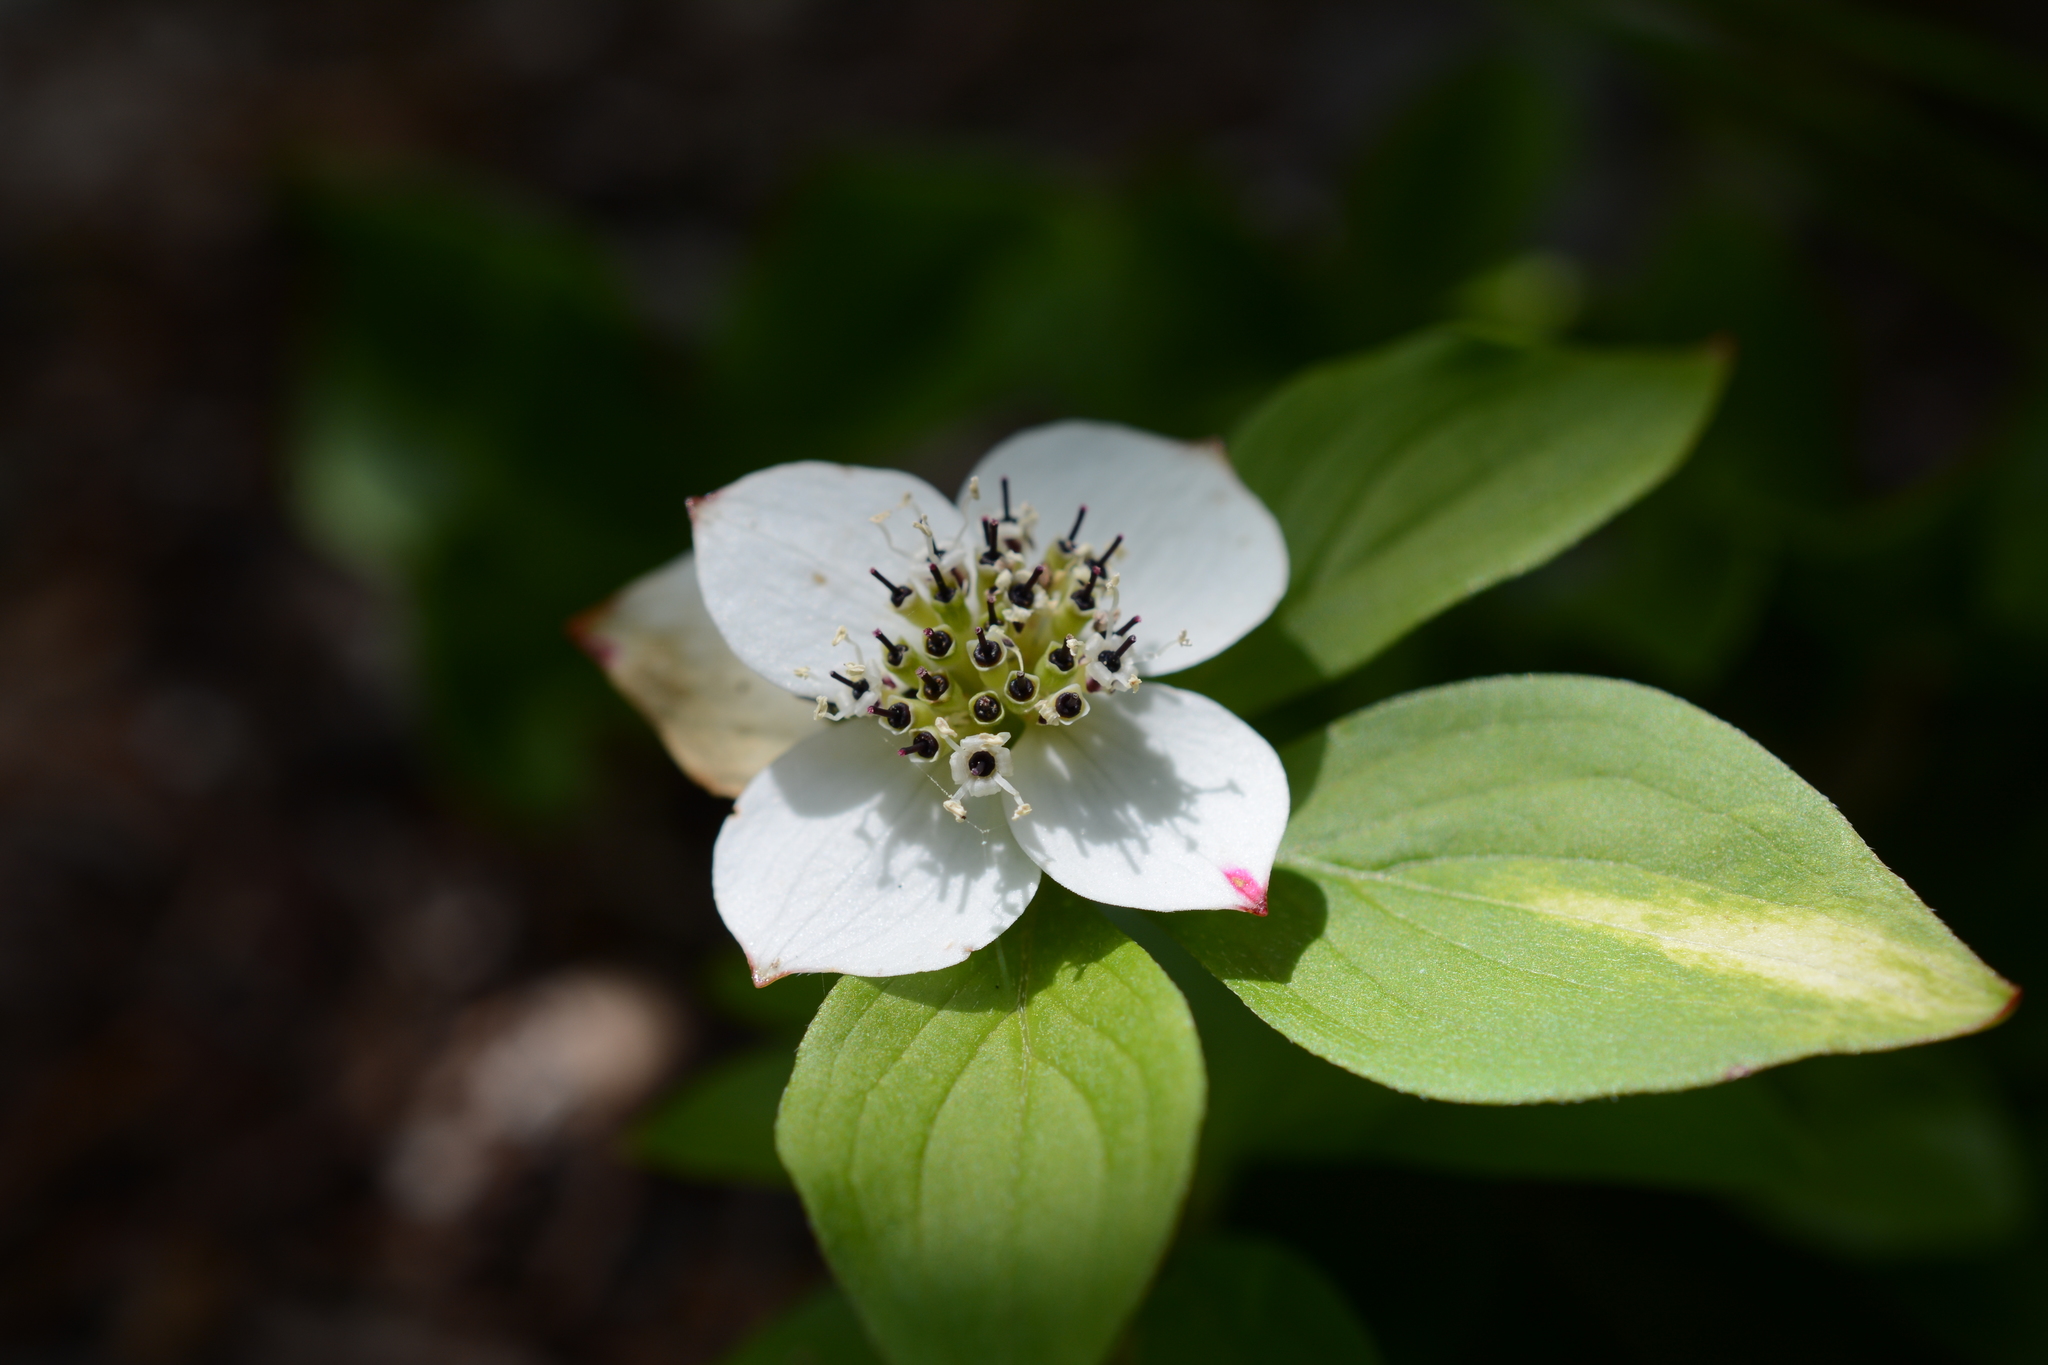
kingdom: Plantae
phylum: Tracheophyta
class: Magnoliopsida
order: Cornales
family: Cornaceae
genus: Cornus
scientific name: Cornus unalaschkensis
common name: Alaska bunchberry
